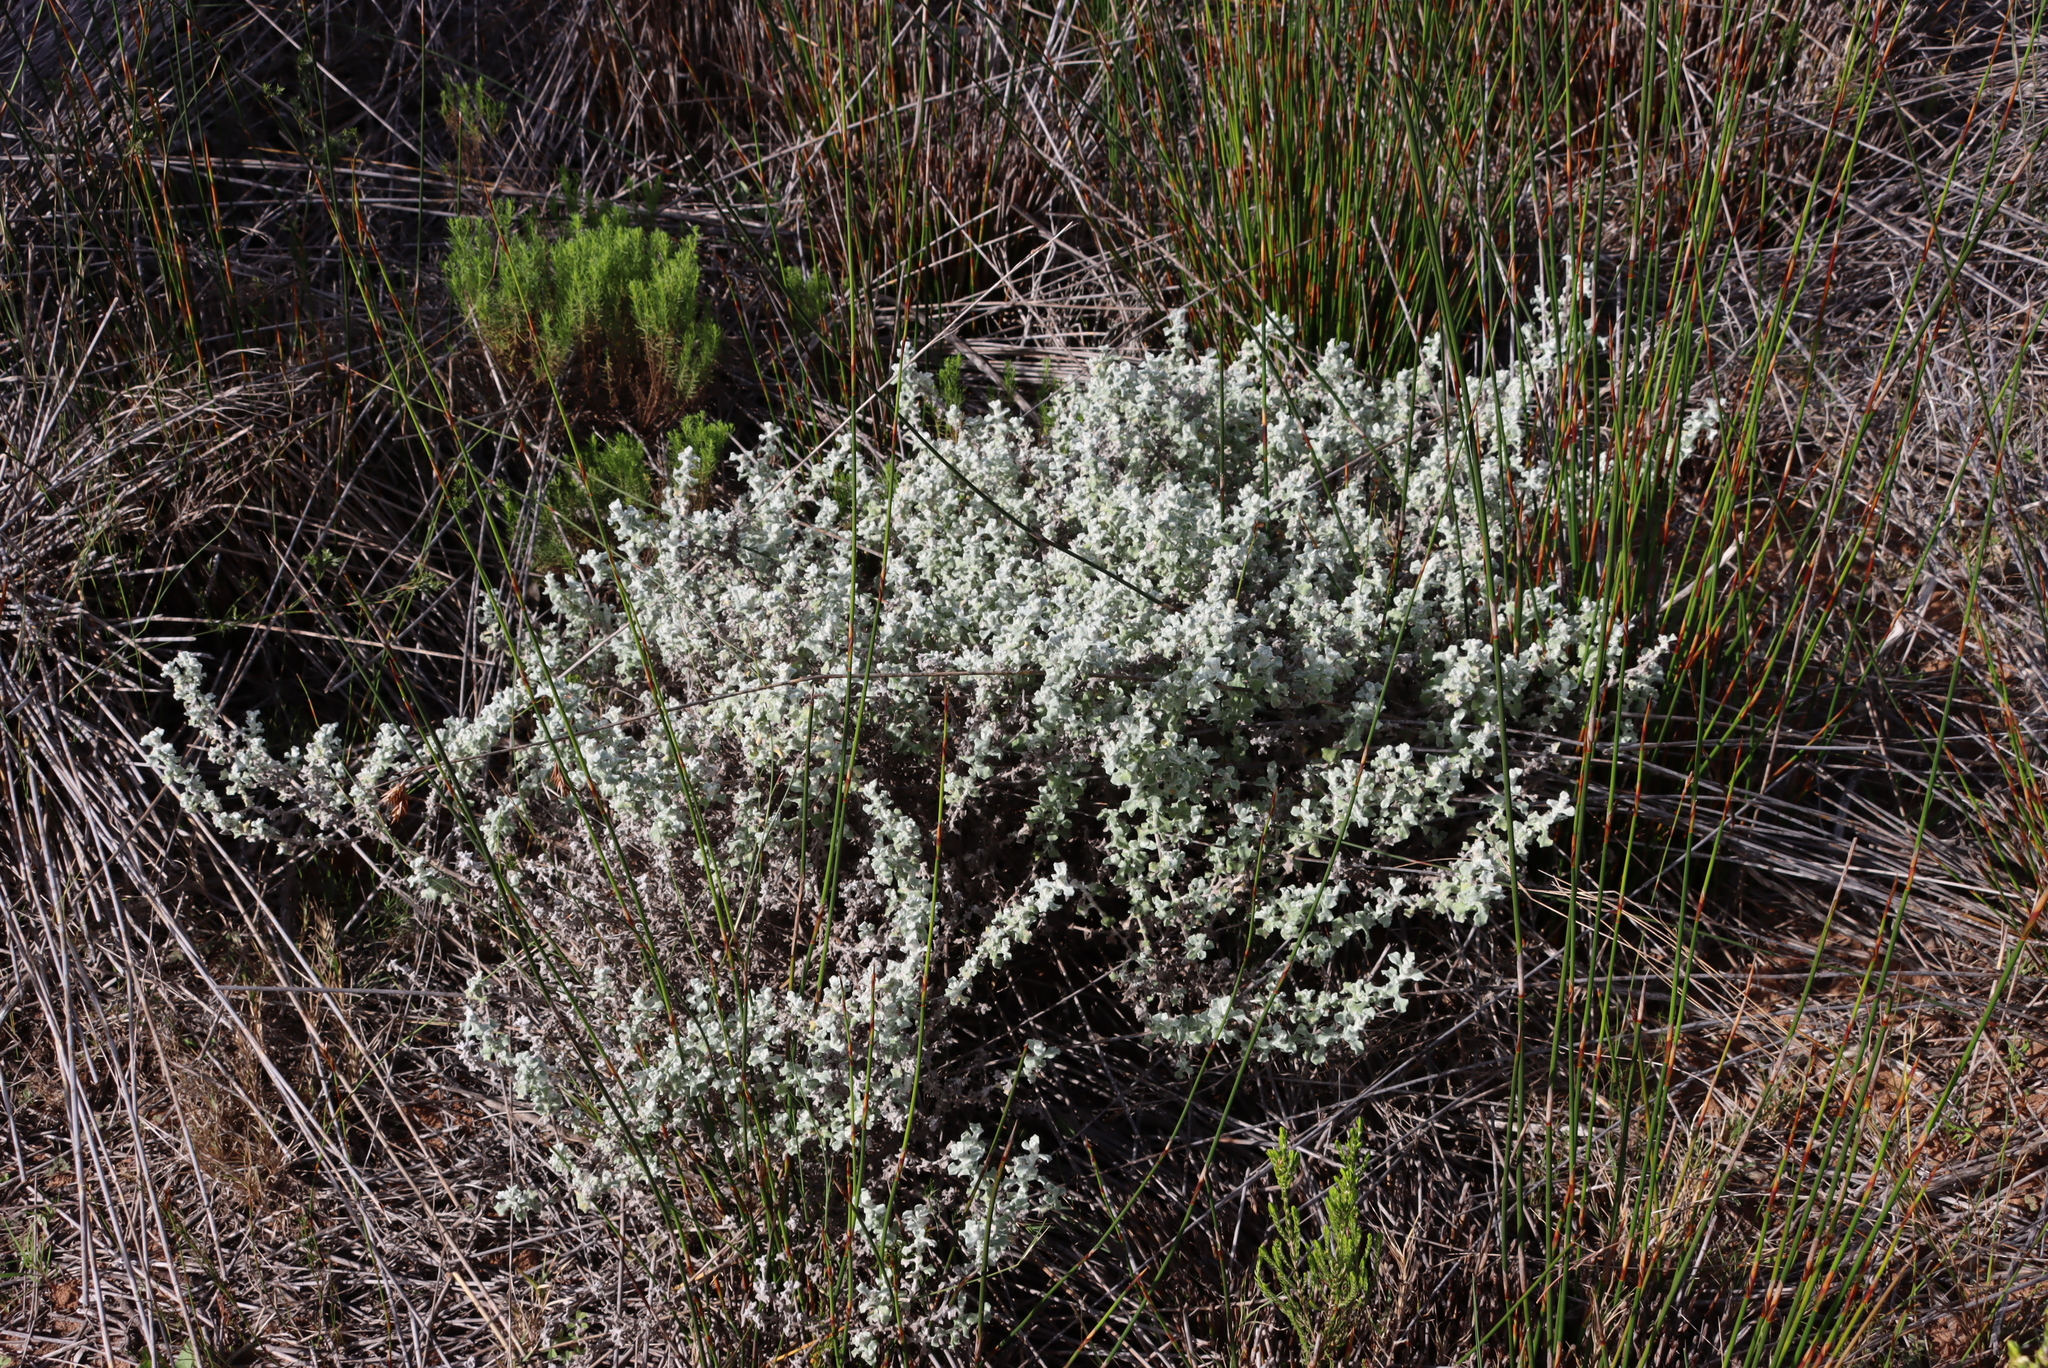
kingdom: Plantae
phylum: Tracheophyta
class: Magnoliopsida
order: Asterales
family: Asteraceae
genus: Helichrysum
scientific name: Helichrysum patulum
